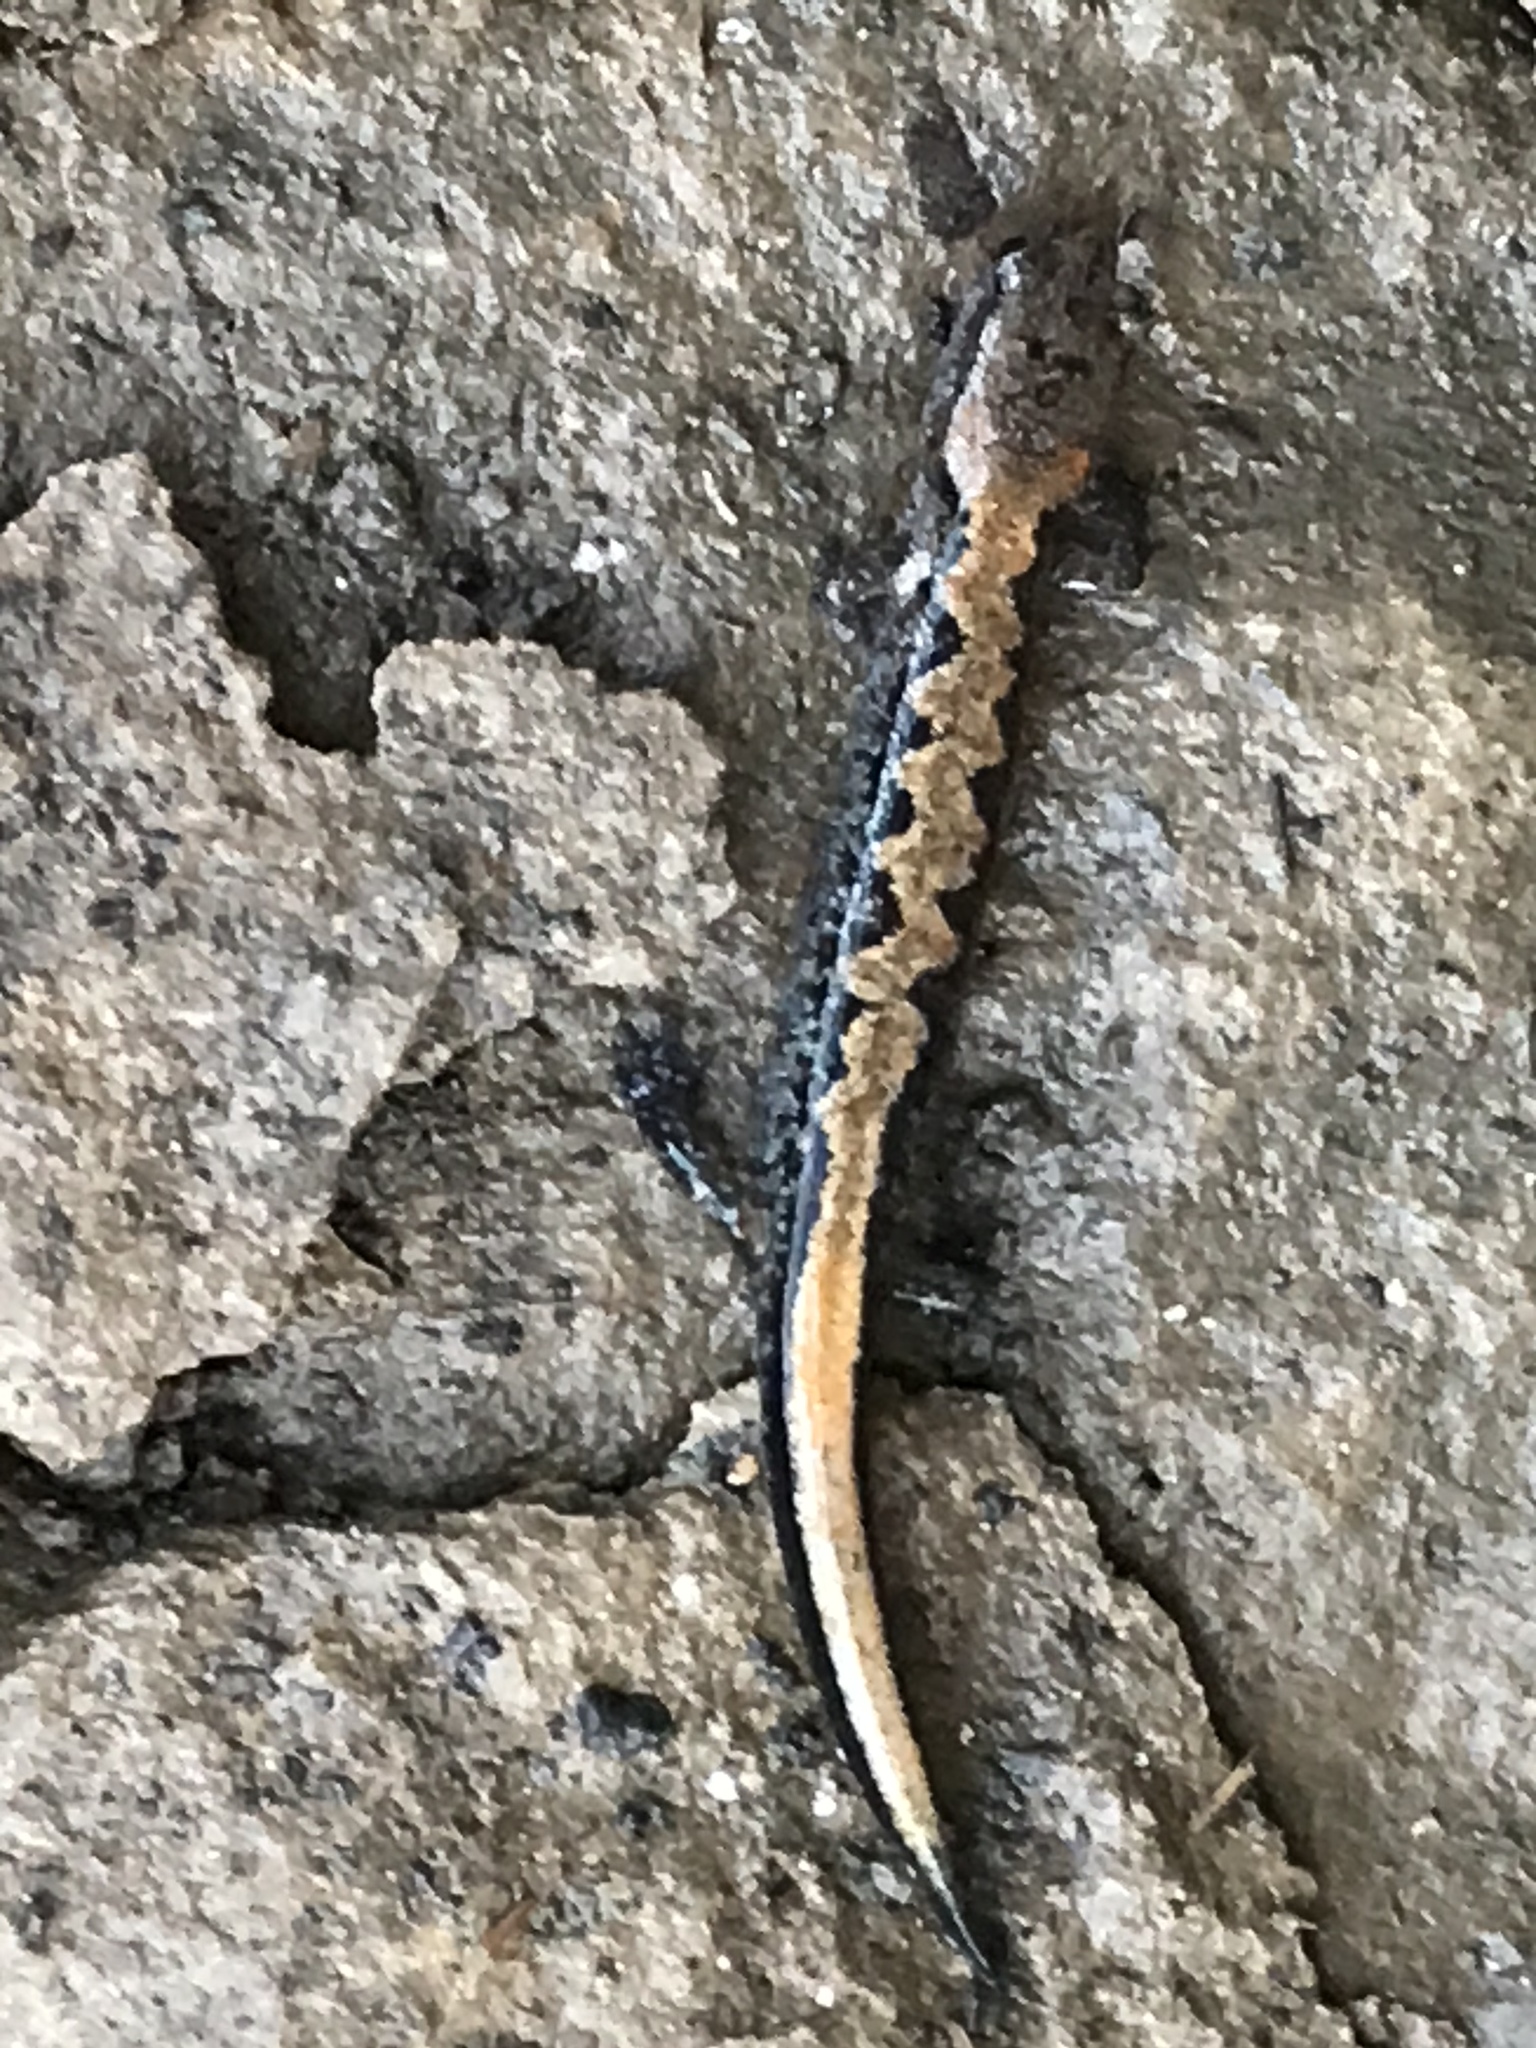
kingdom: Animalia
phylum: Chordata
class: Amphibia
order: Caudata
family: Plethodontidae
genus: Plethodon
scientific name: Plethodon dorsalis
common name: Northern zigzag salamander
